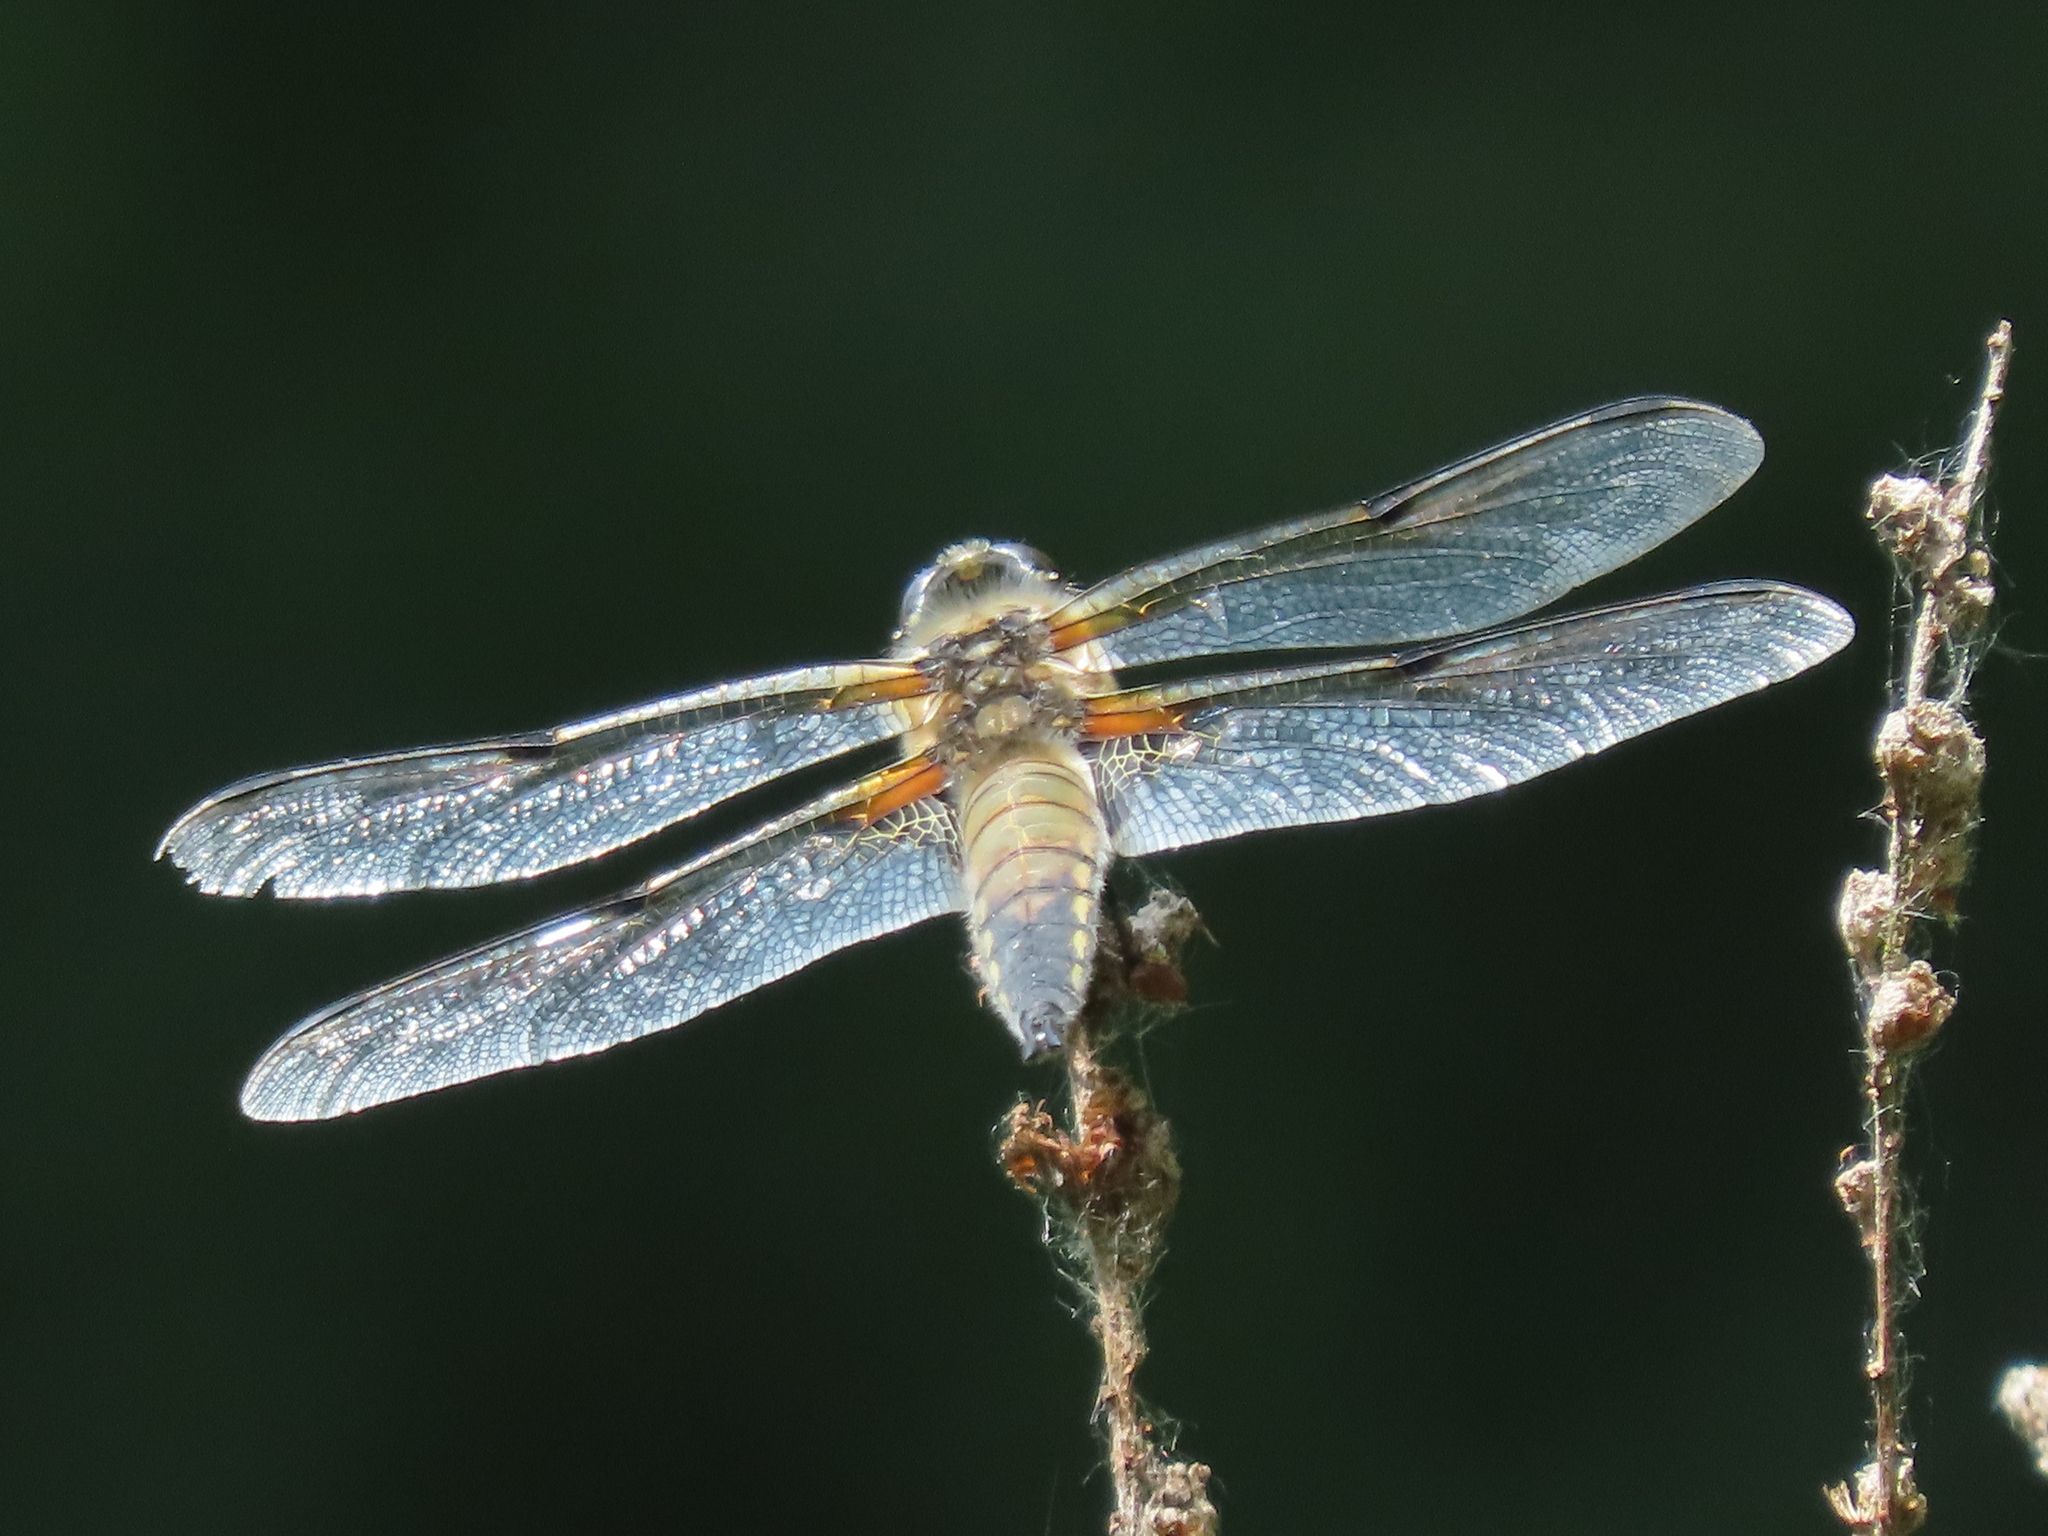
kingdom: Animalia
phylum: Arthropoda
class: Insecta
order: Odonata
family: Libellulidae
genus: Libellula
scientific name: Libellula quadrimaculata
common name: Four-spotted chaser
